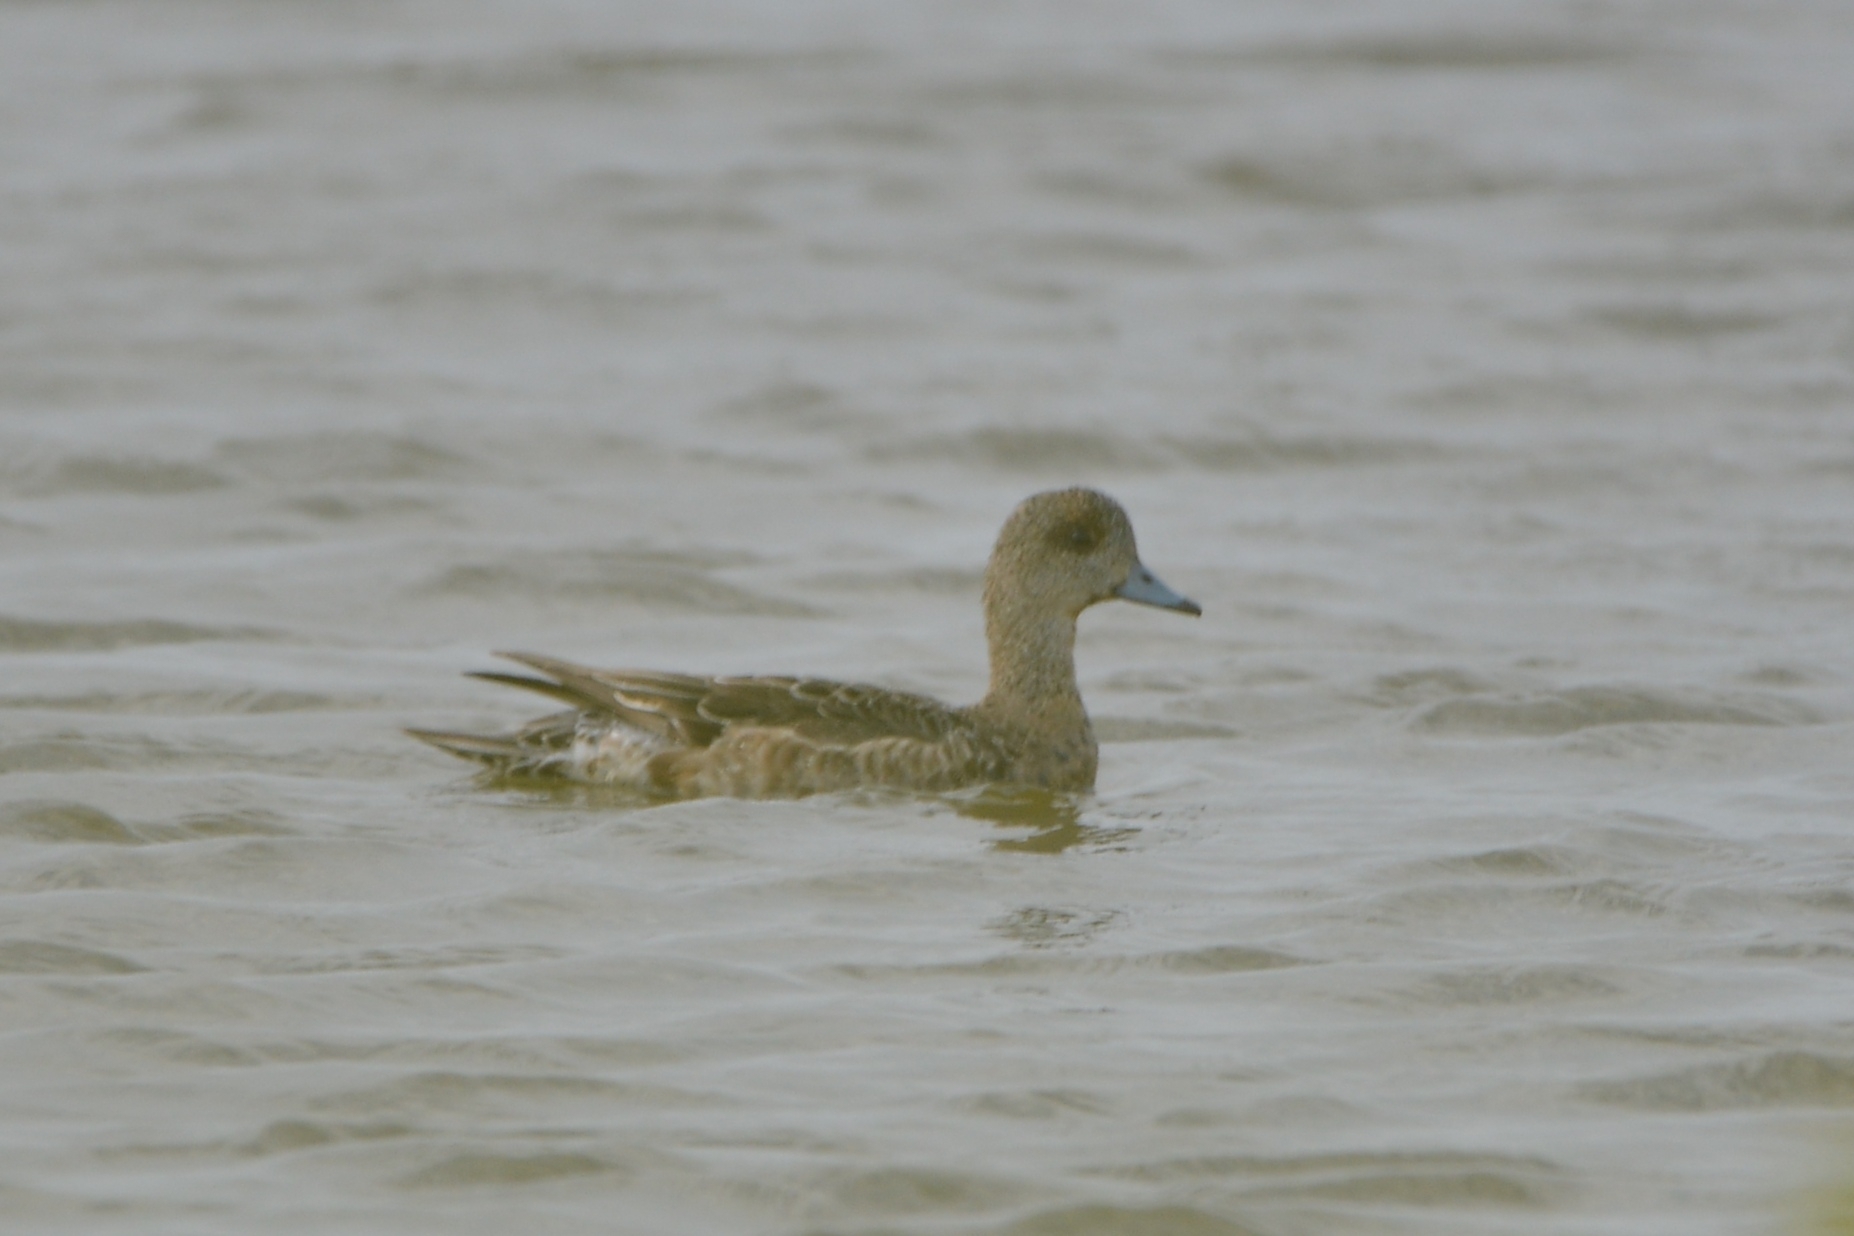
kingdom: Animalia
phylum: Chordata
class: Aves
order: Anseriformes
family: Anatidae
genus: Mareca
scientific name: Mareca penelope
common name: Eurasian wigeon
